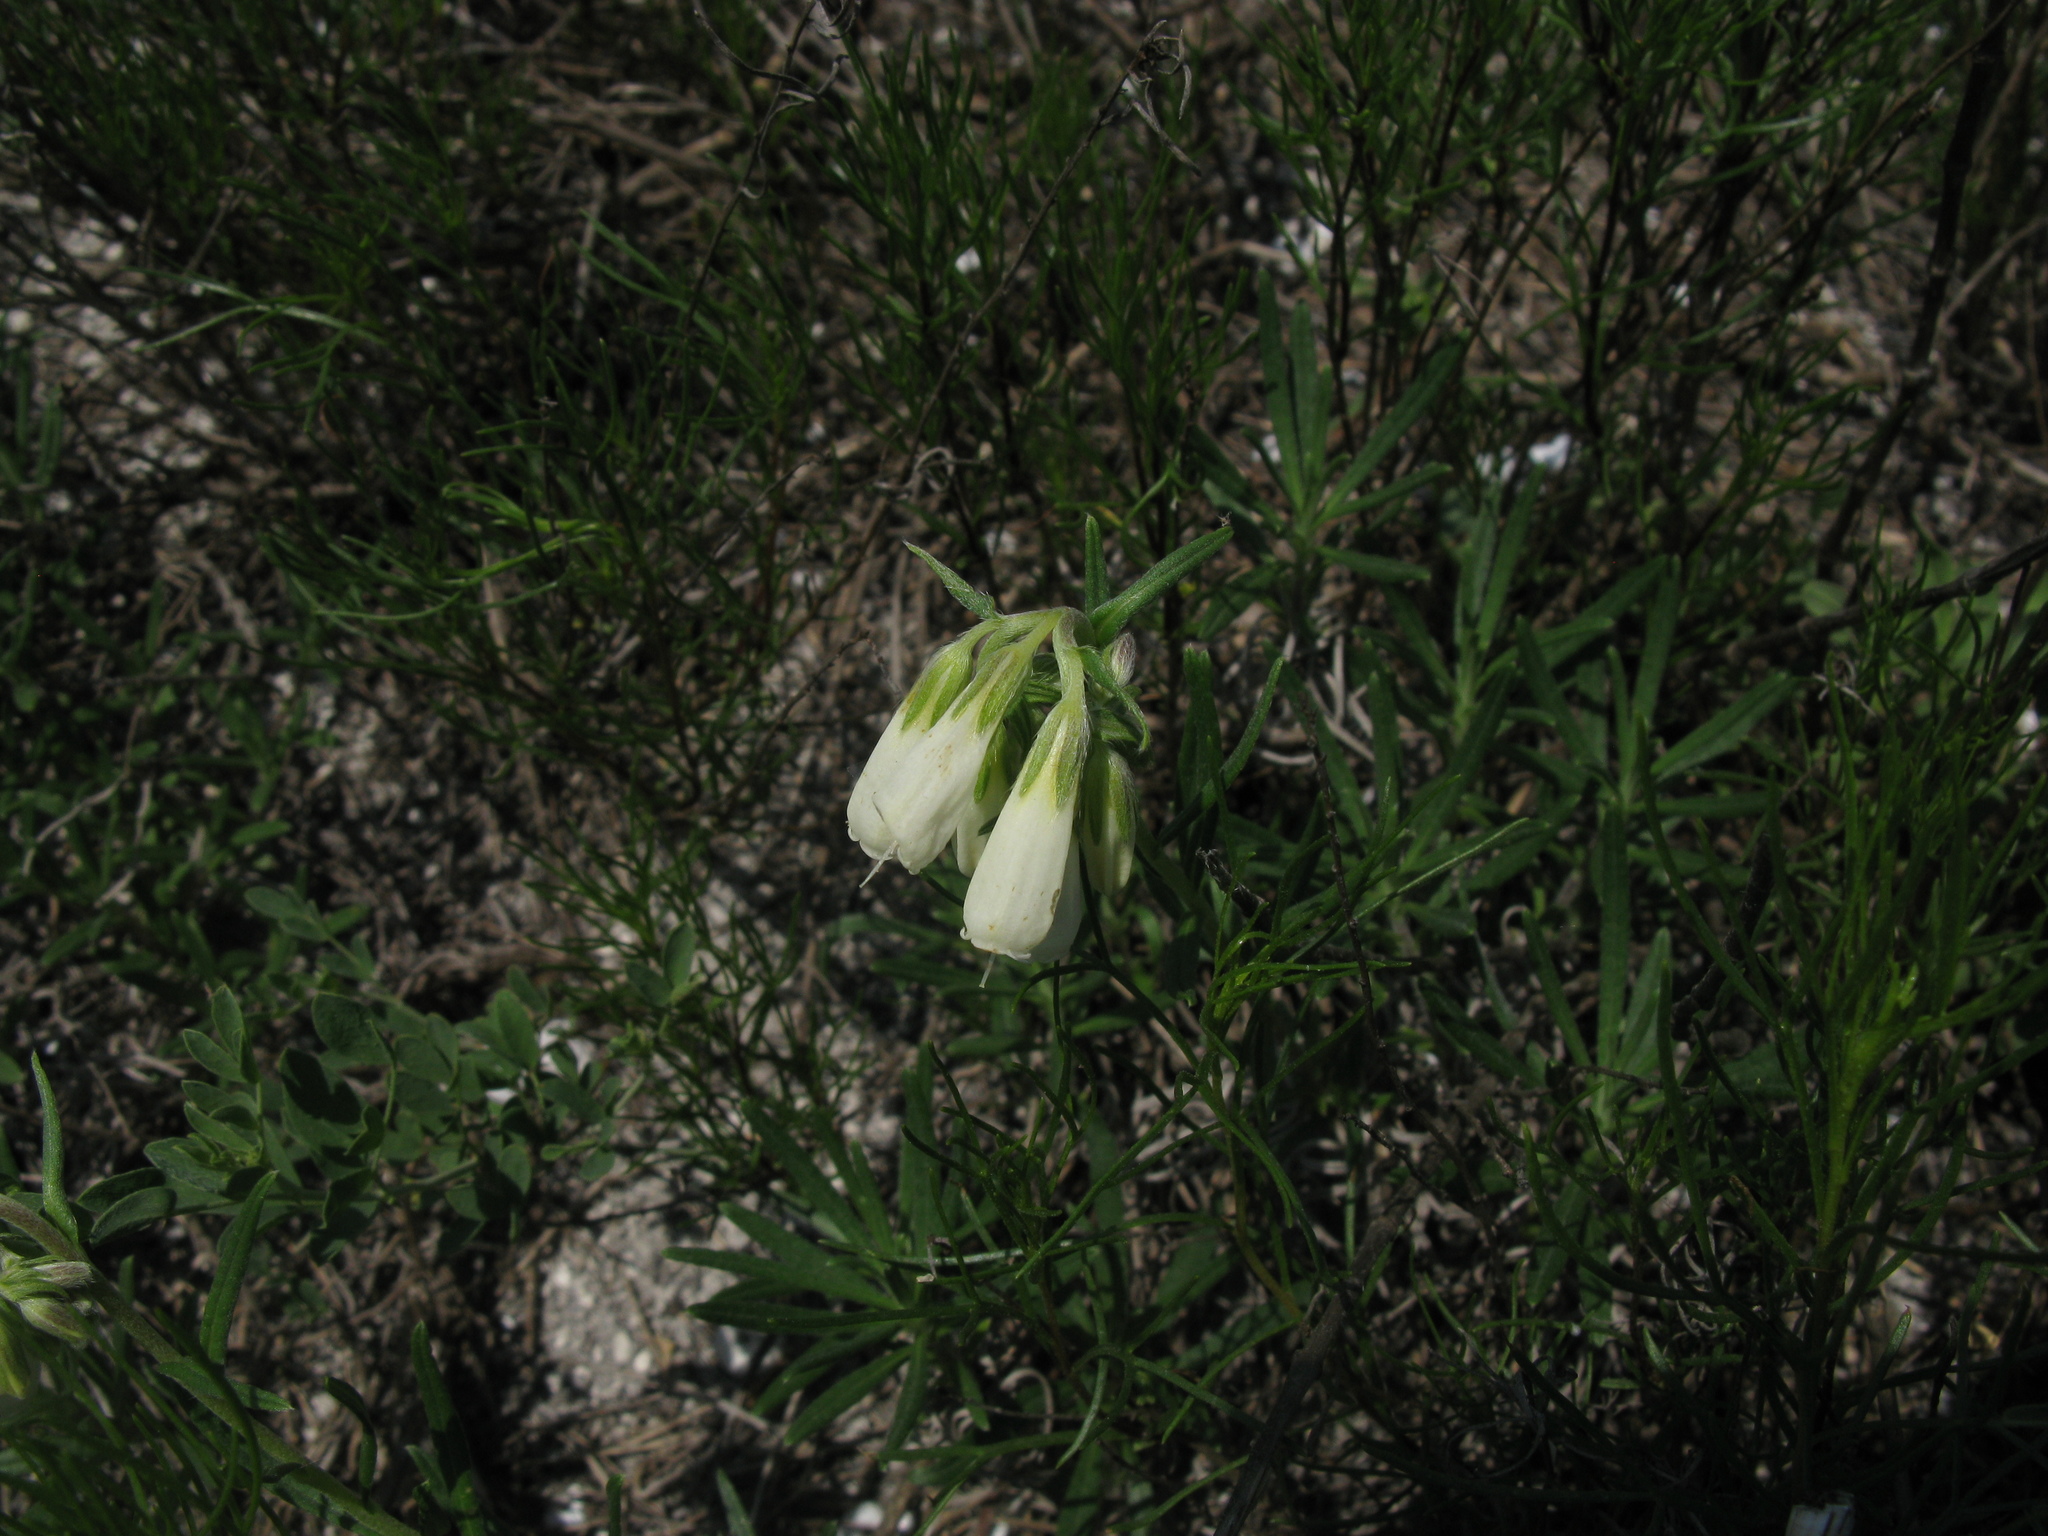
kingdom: Plantae
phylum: Tracheophyta
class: Magnoliopsida
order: Boraginales
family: Boraginaceae
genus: Onosma
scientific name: Onosma simplicissima
